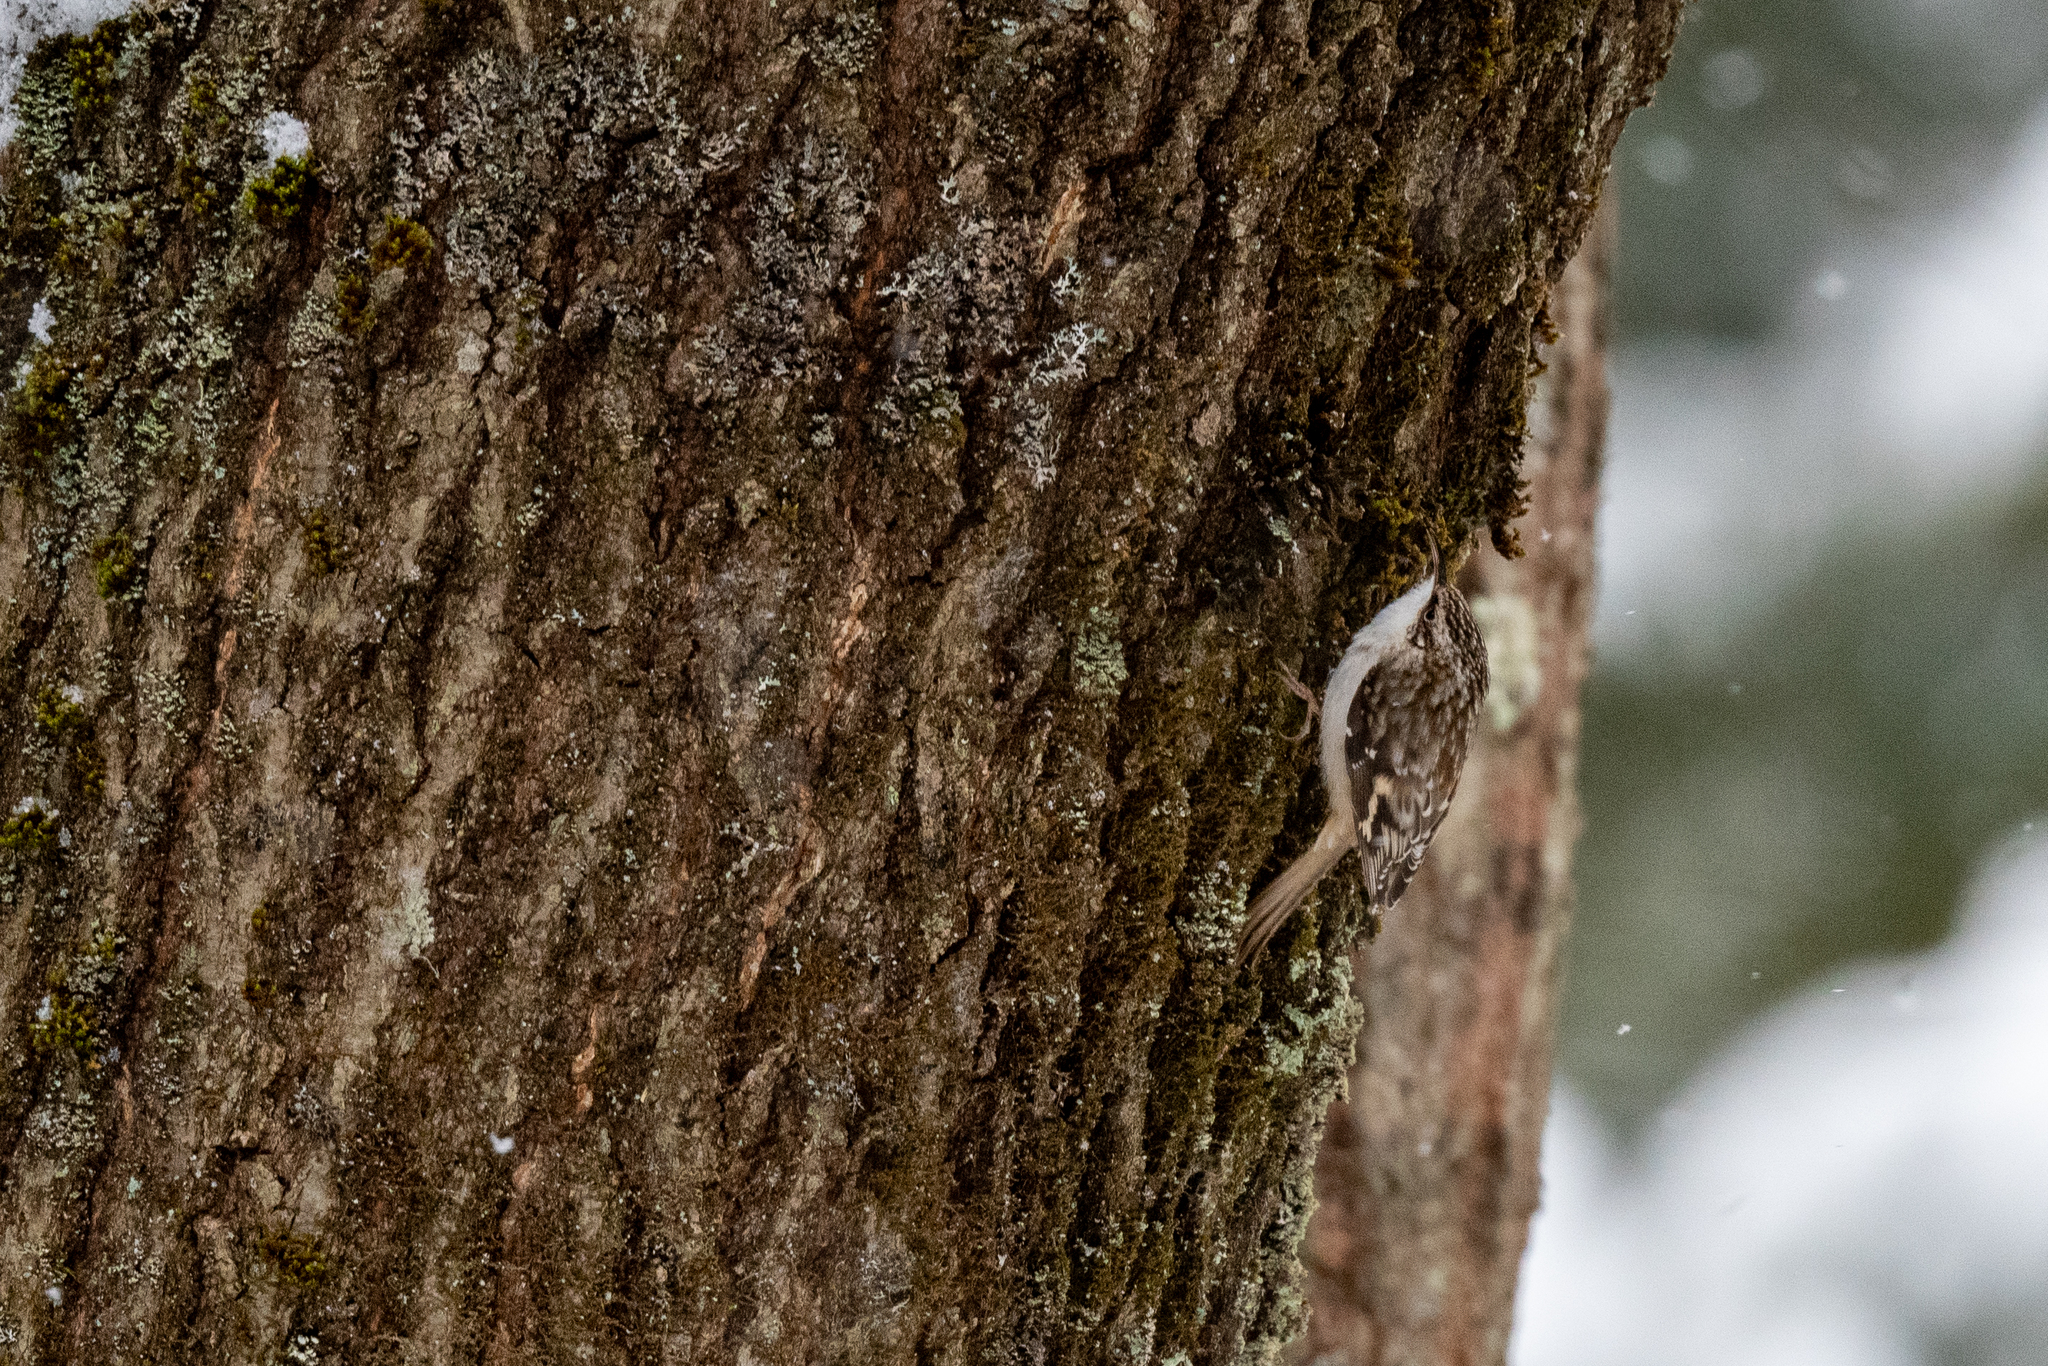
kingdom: Animalia
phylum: Chordata
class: Aves
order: Passeriformes
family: Certhiidae
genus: Certhia
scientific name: Certhia americana
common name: Brown creeper
